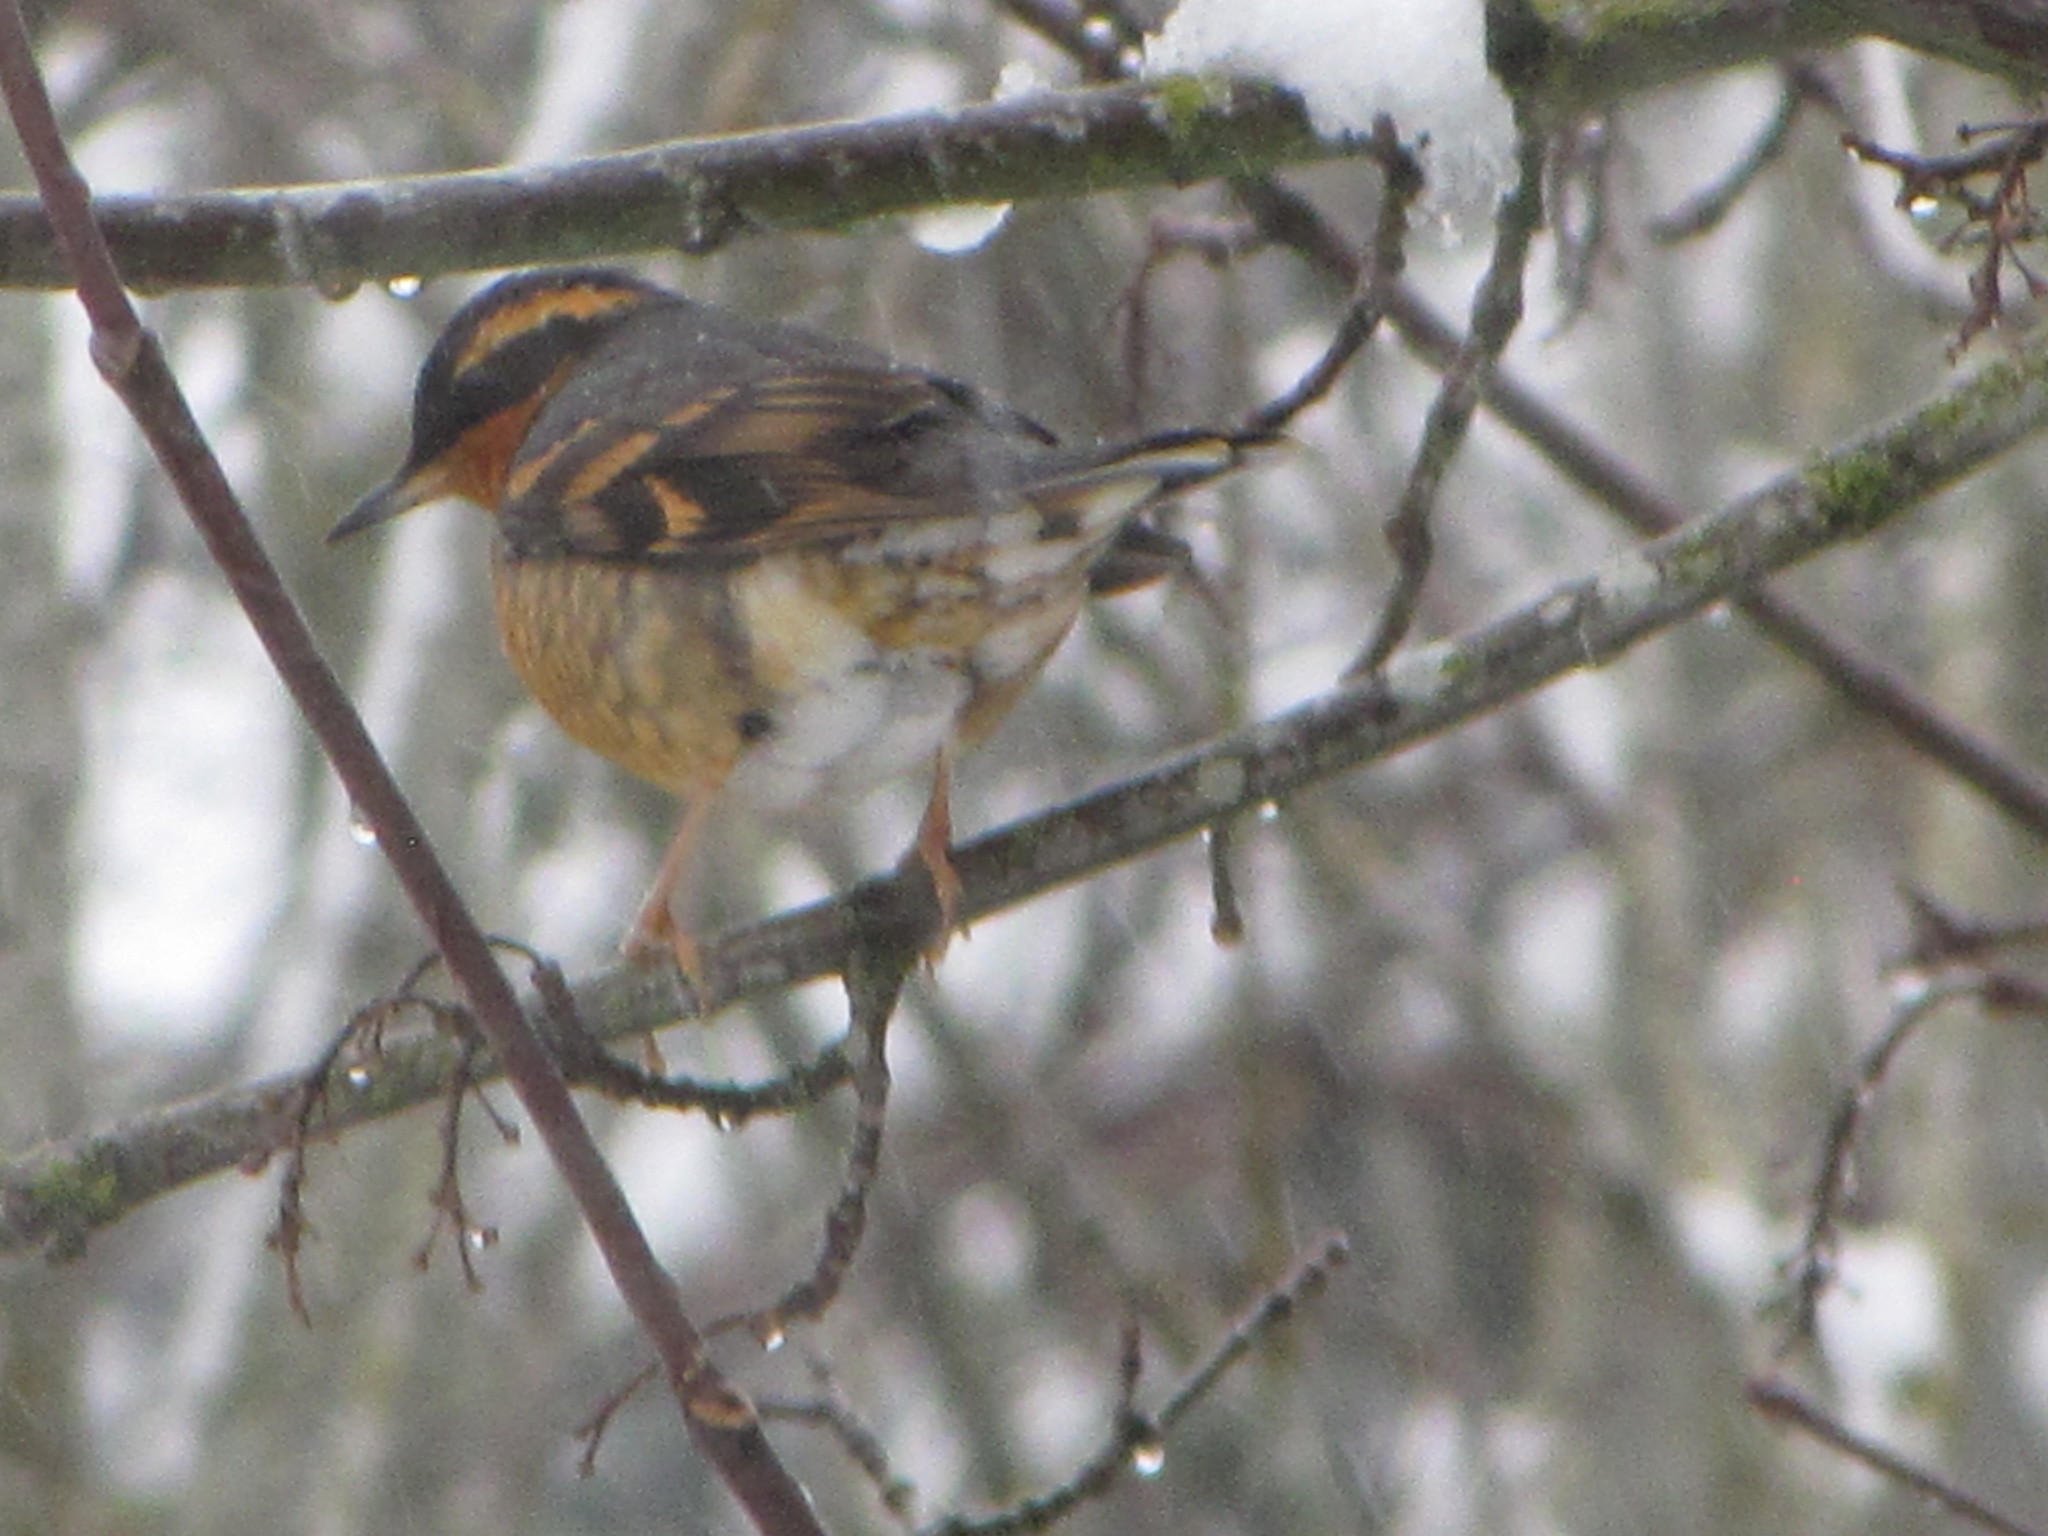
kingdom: Animalia
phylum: Chordata
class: Aves
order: Passeriformes
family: Turdidae
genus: Ixoreus
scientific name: Ixoreus naevius
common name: Varied thrush
